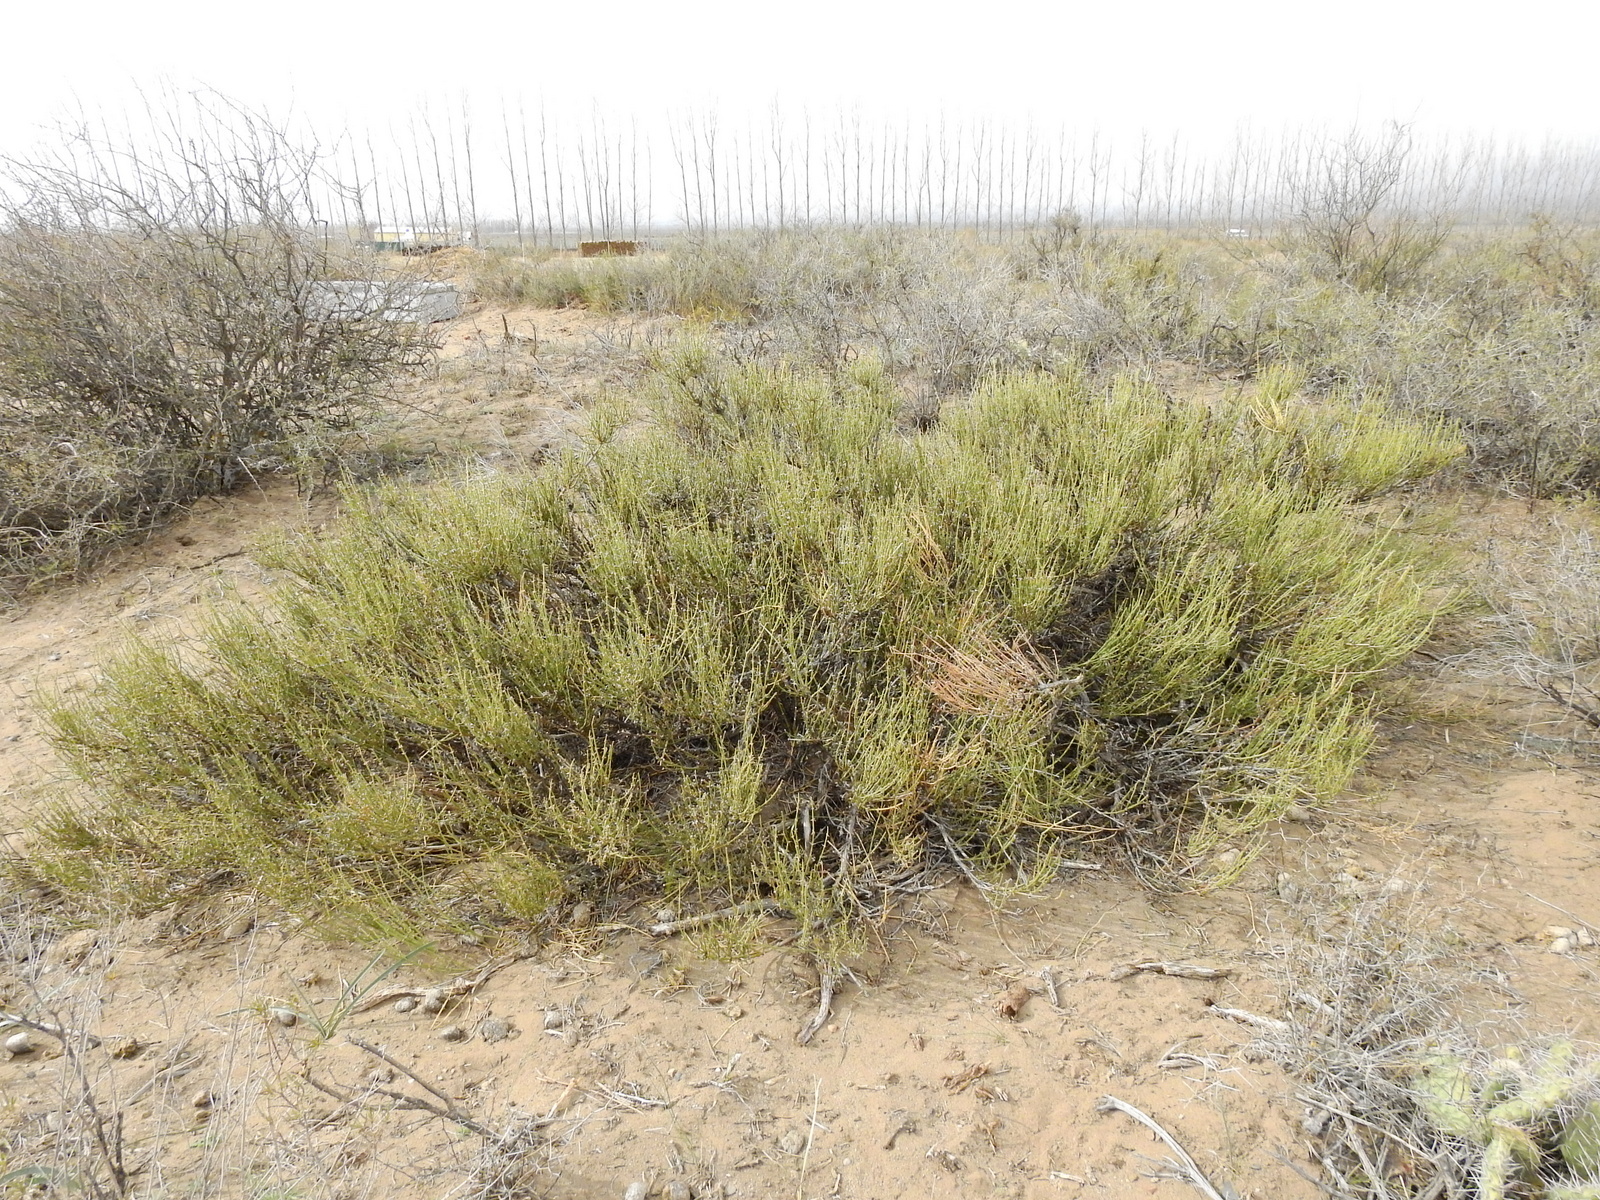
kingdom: Plantae
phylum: Tracheophyta
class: Gnetopsida
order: Ephedrales
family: Ephedraceae
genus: Ephedra
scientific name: Ephedra ochreata
